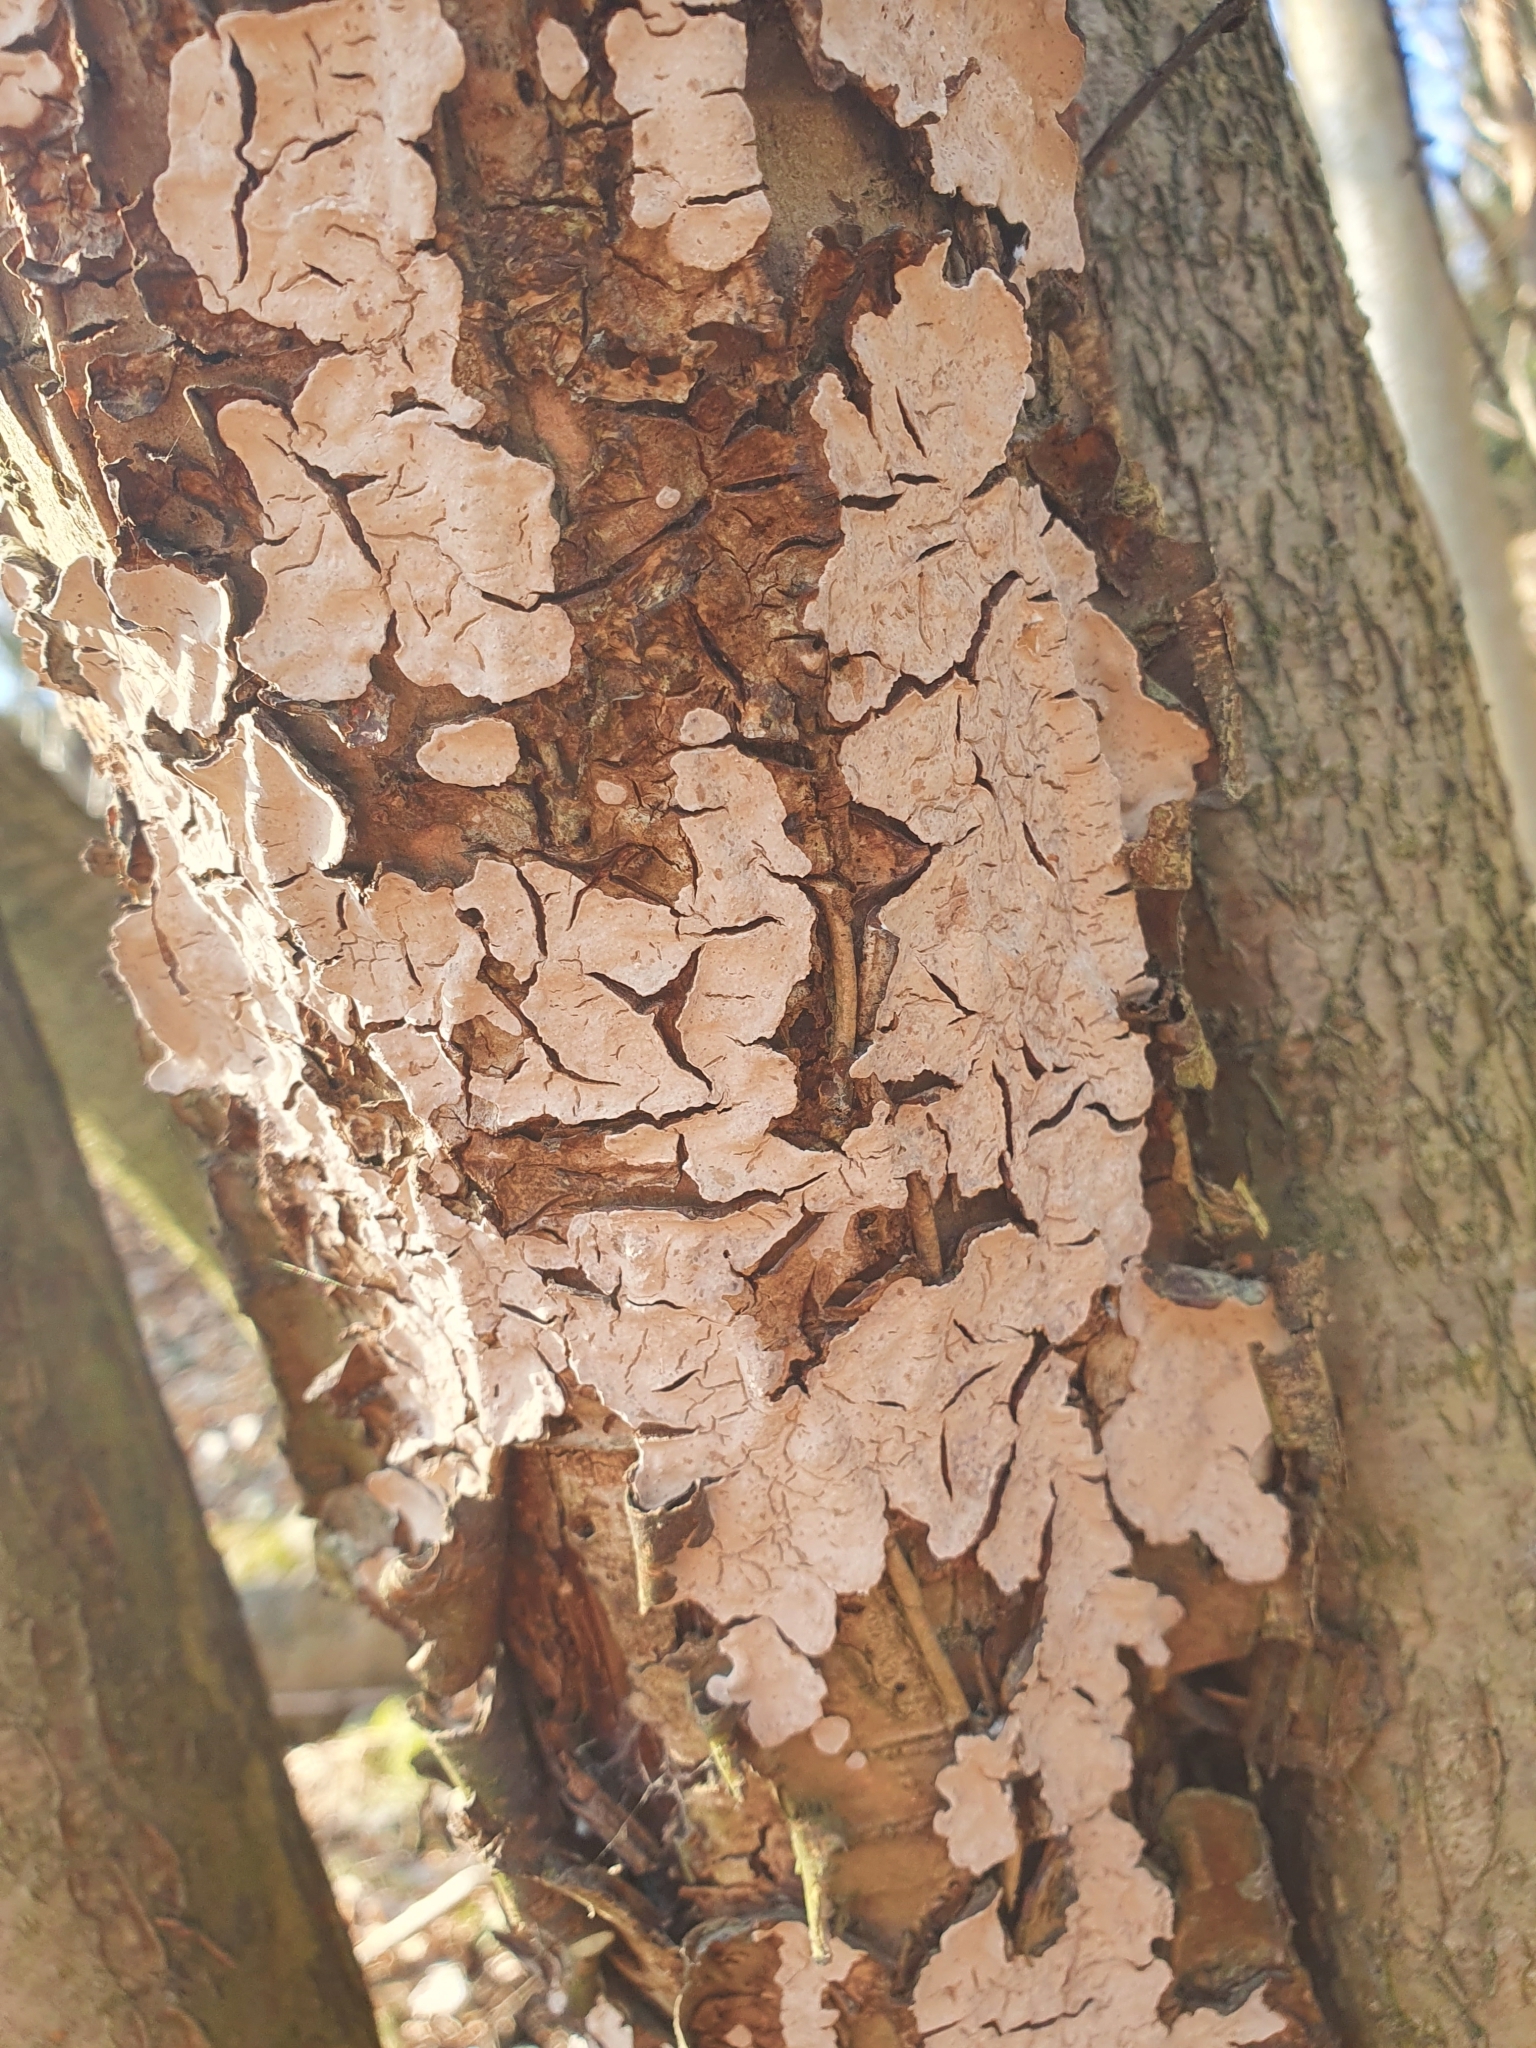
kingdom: Fungi
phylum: Basidiomycota
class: Agaricomycetes
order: Russulales
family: Stereaceae
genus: Stereum
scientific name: Stereum rugosum
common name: Bleeding broadleaf crust
